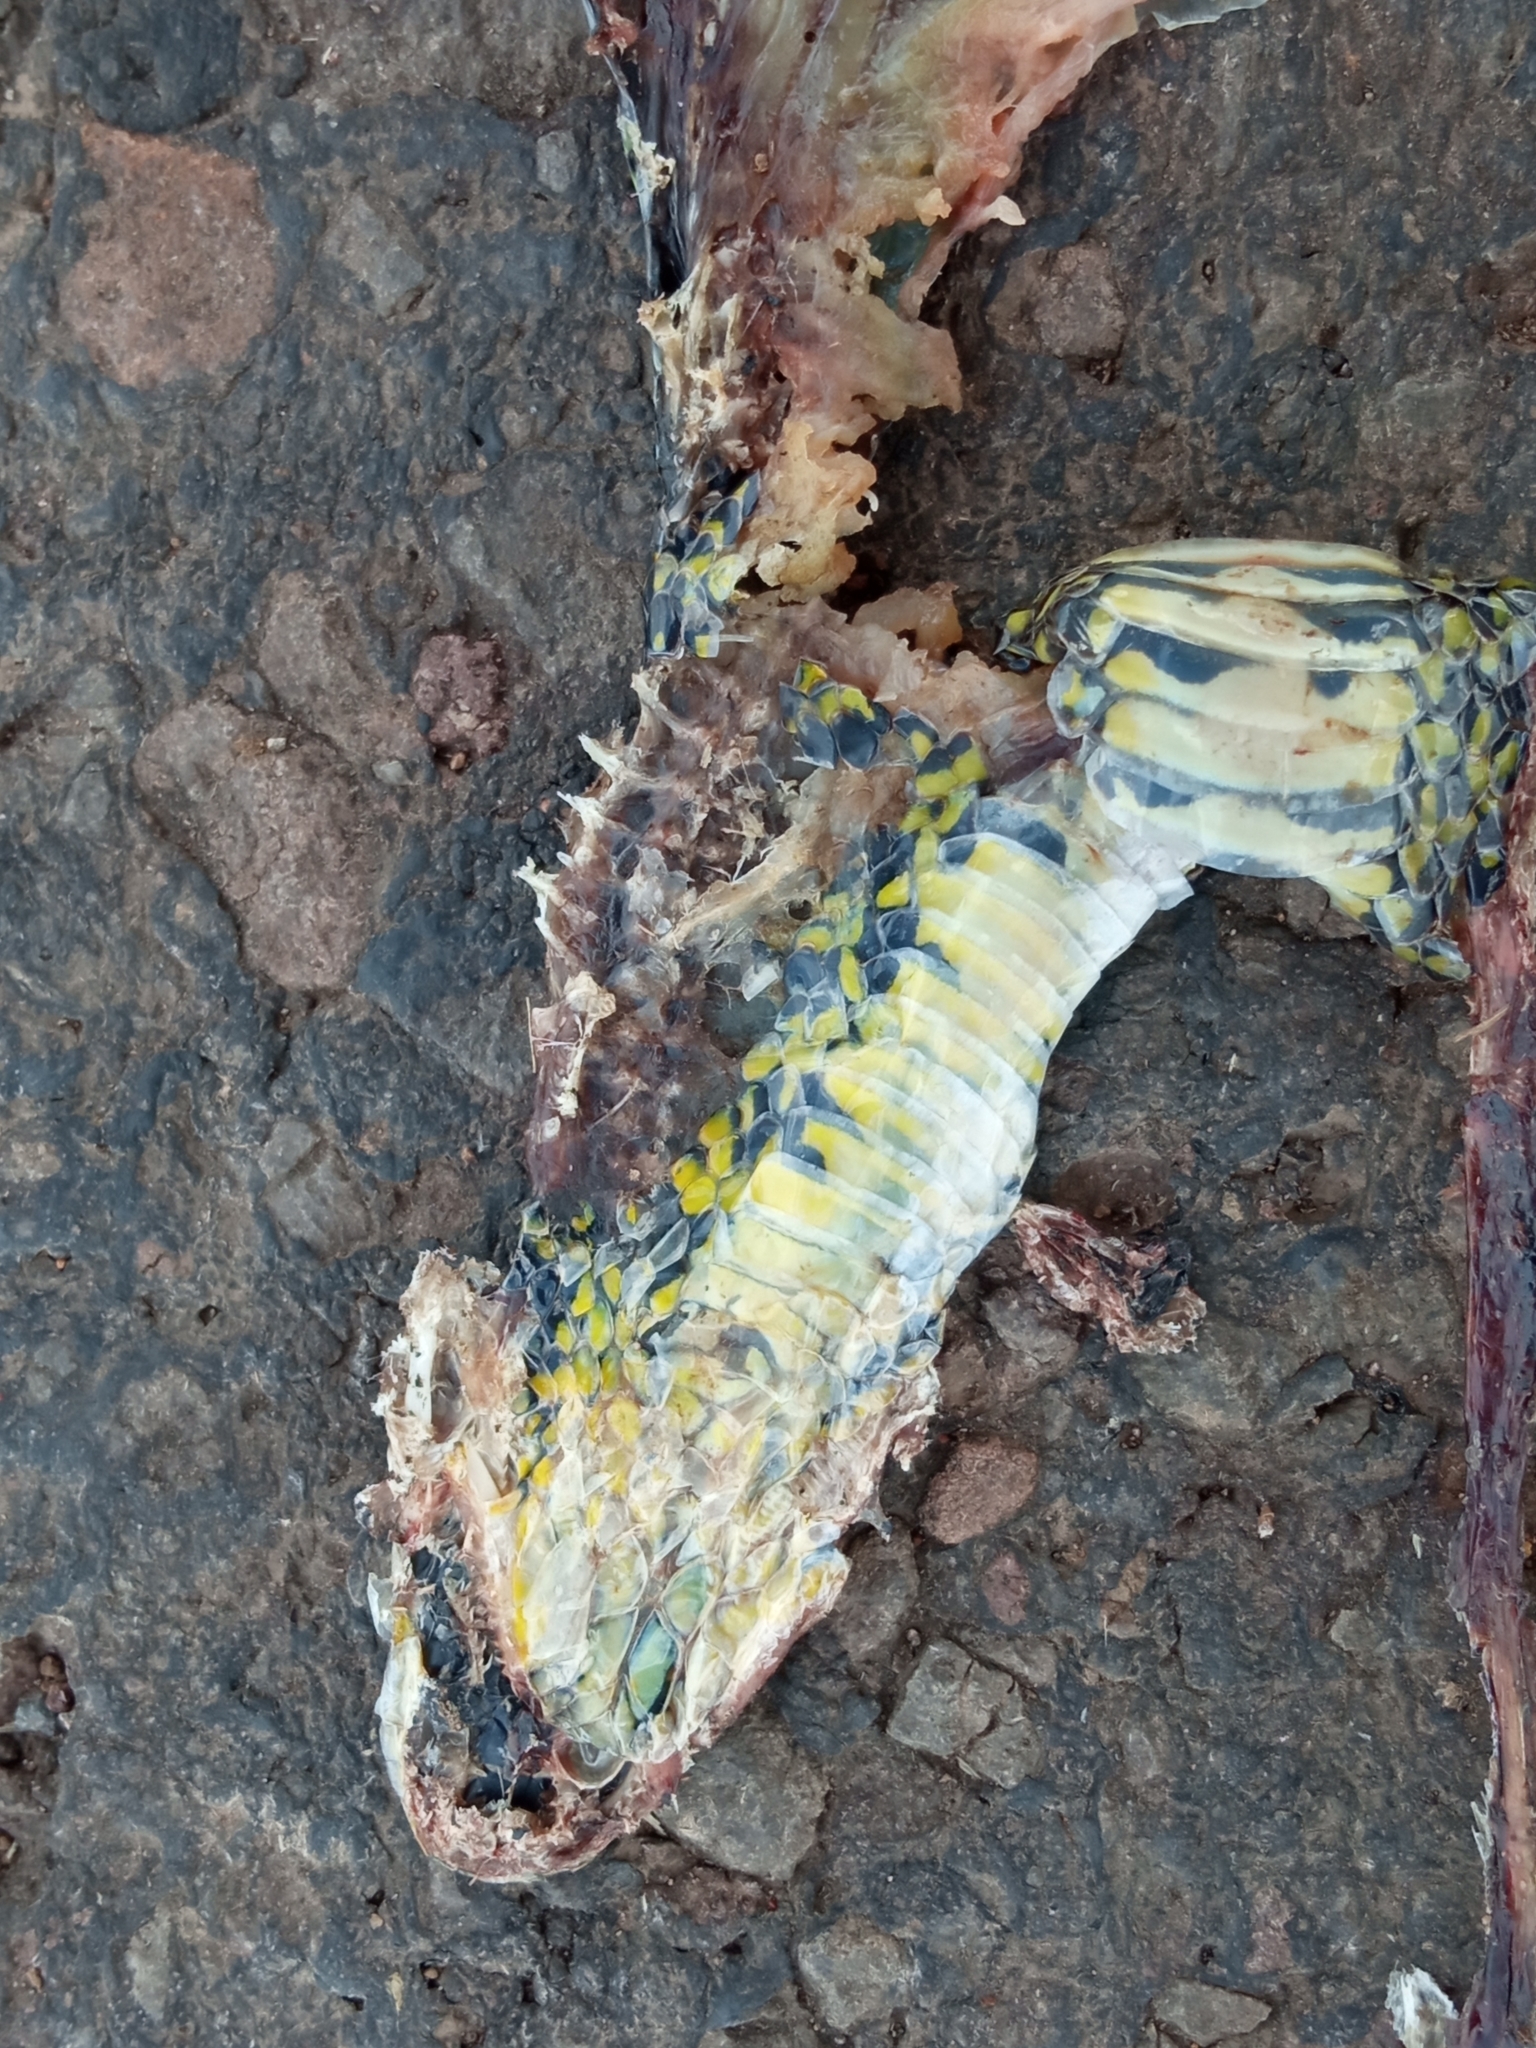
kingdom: Animalia
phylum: Chordata
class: Squamata
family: Colubridae
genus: Erythrolamprus
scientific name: Erythrolamprus poecilogyrus
